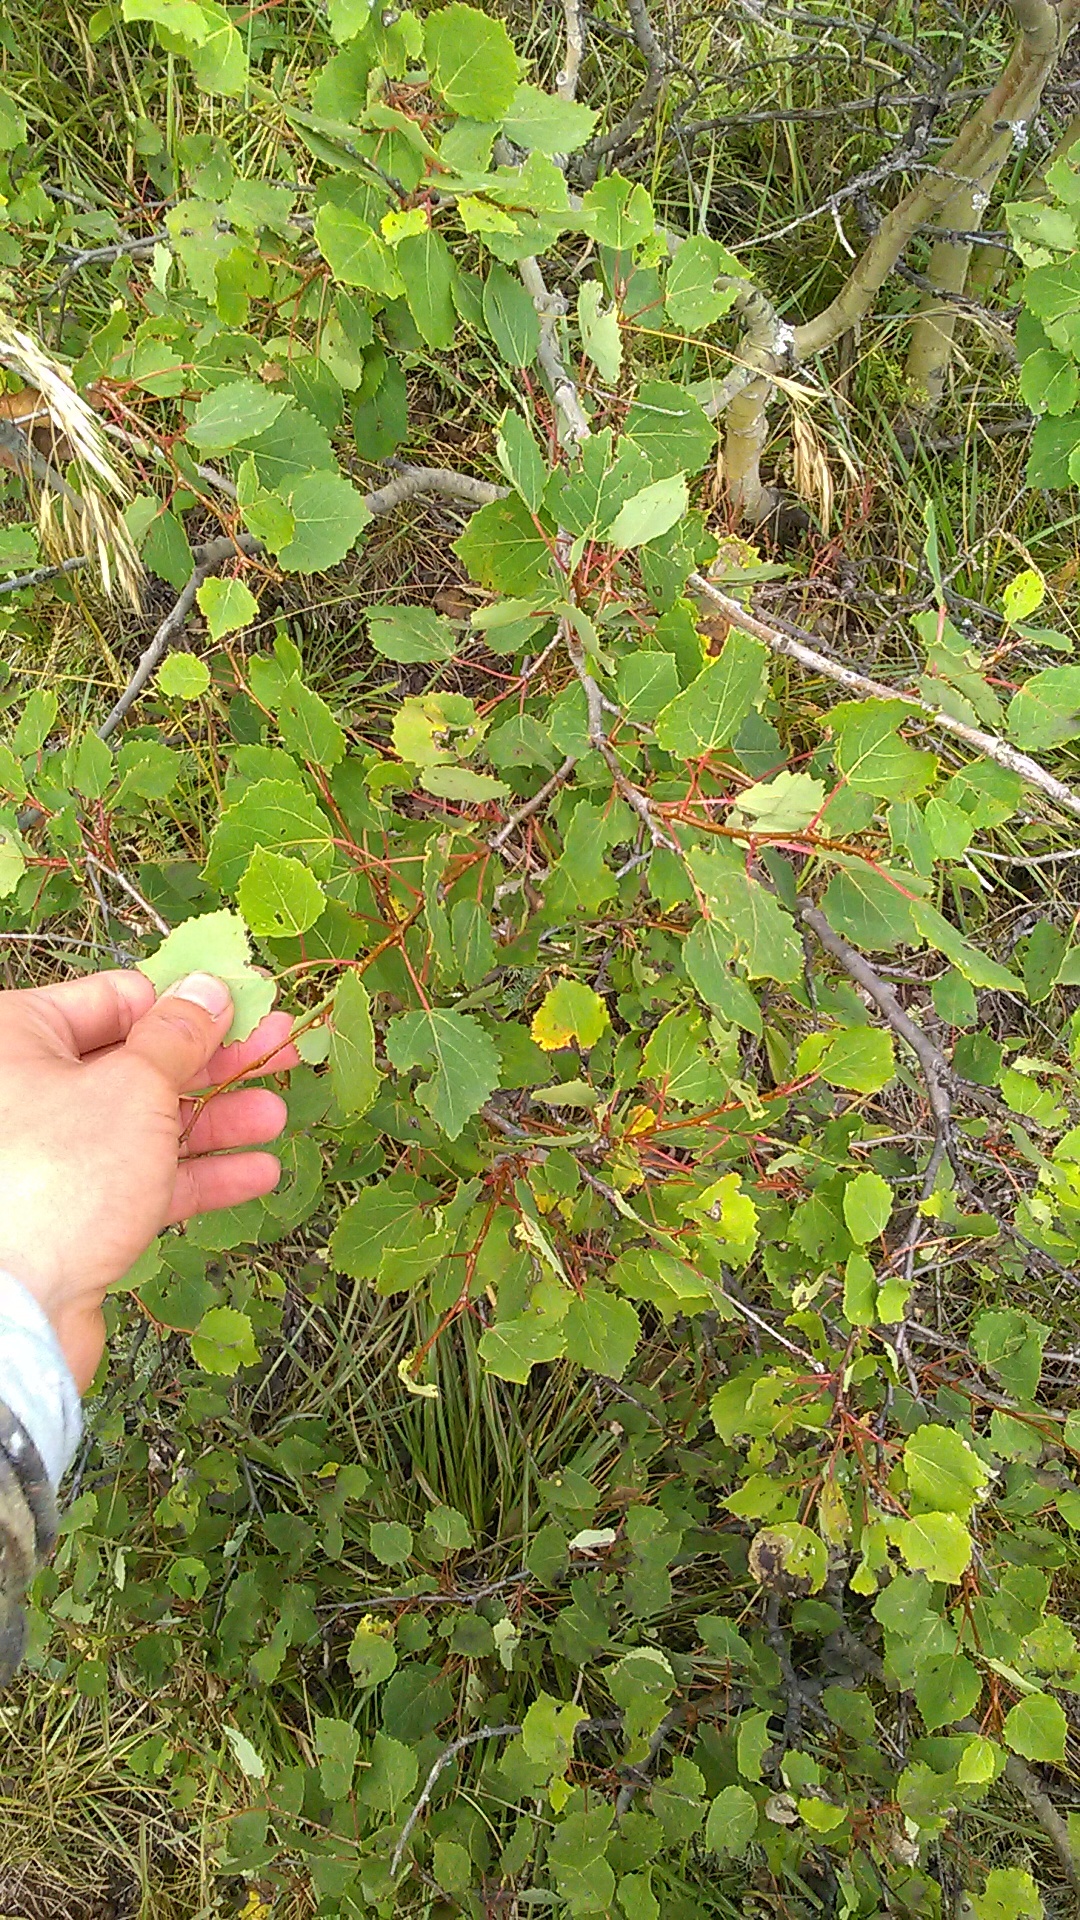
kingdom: Plantae
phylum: Tracheophyta
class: Magnoliopsida
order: Malpighiales
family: Salicaceae
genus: Populus
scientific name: Populus tremula
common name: European aspen
